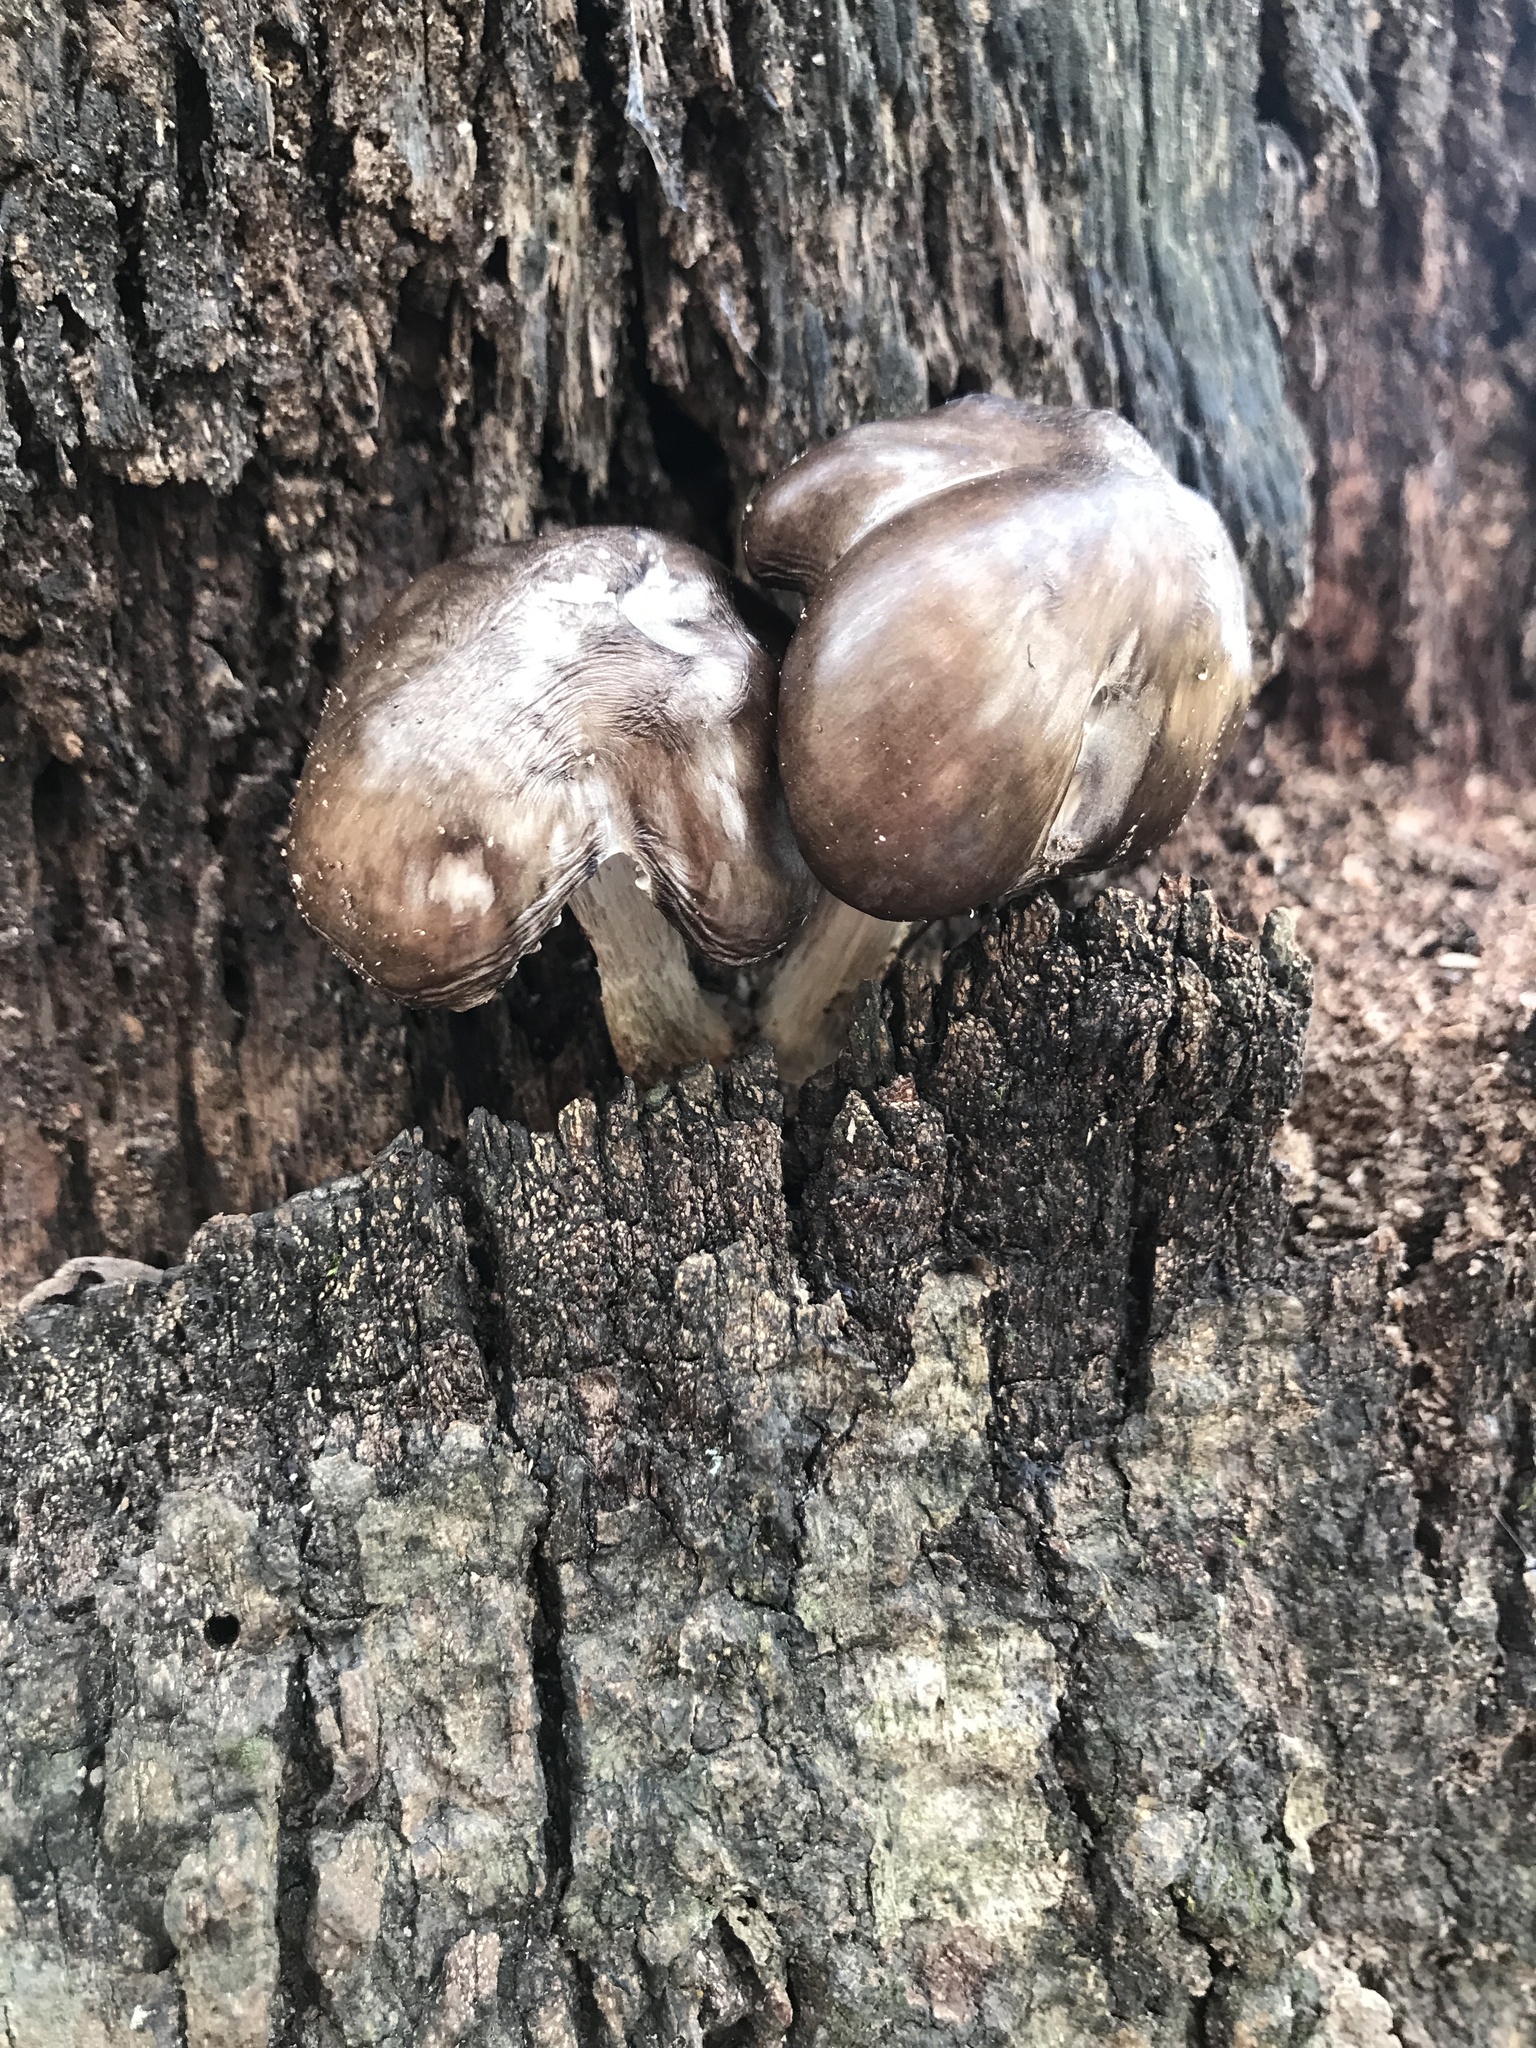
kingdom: Fungi
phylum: Basidiomycota
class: Agaricomycetes
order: Agaricales
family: Pluteaceae
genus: Pluteus
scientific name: Pluteus cervinus
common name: Deer shield
